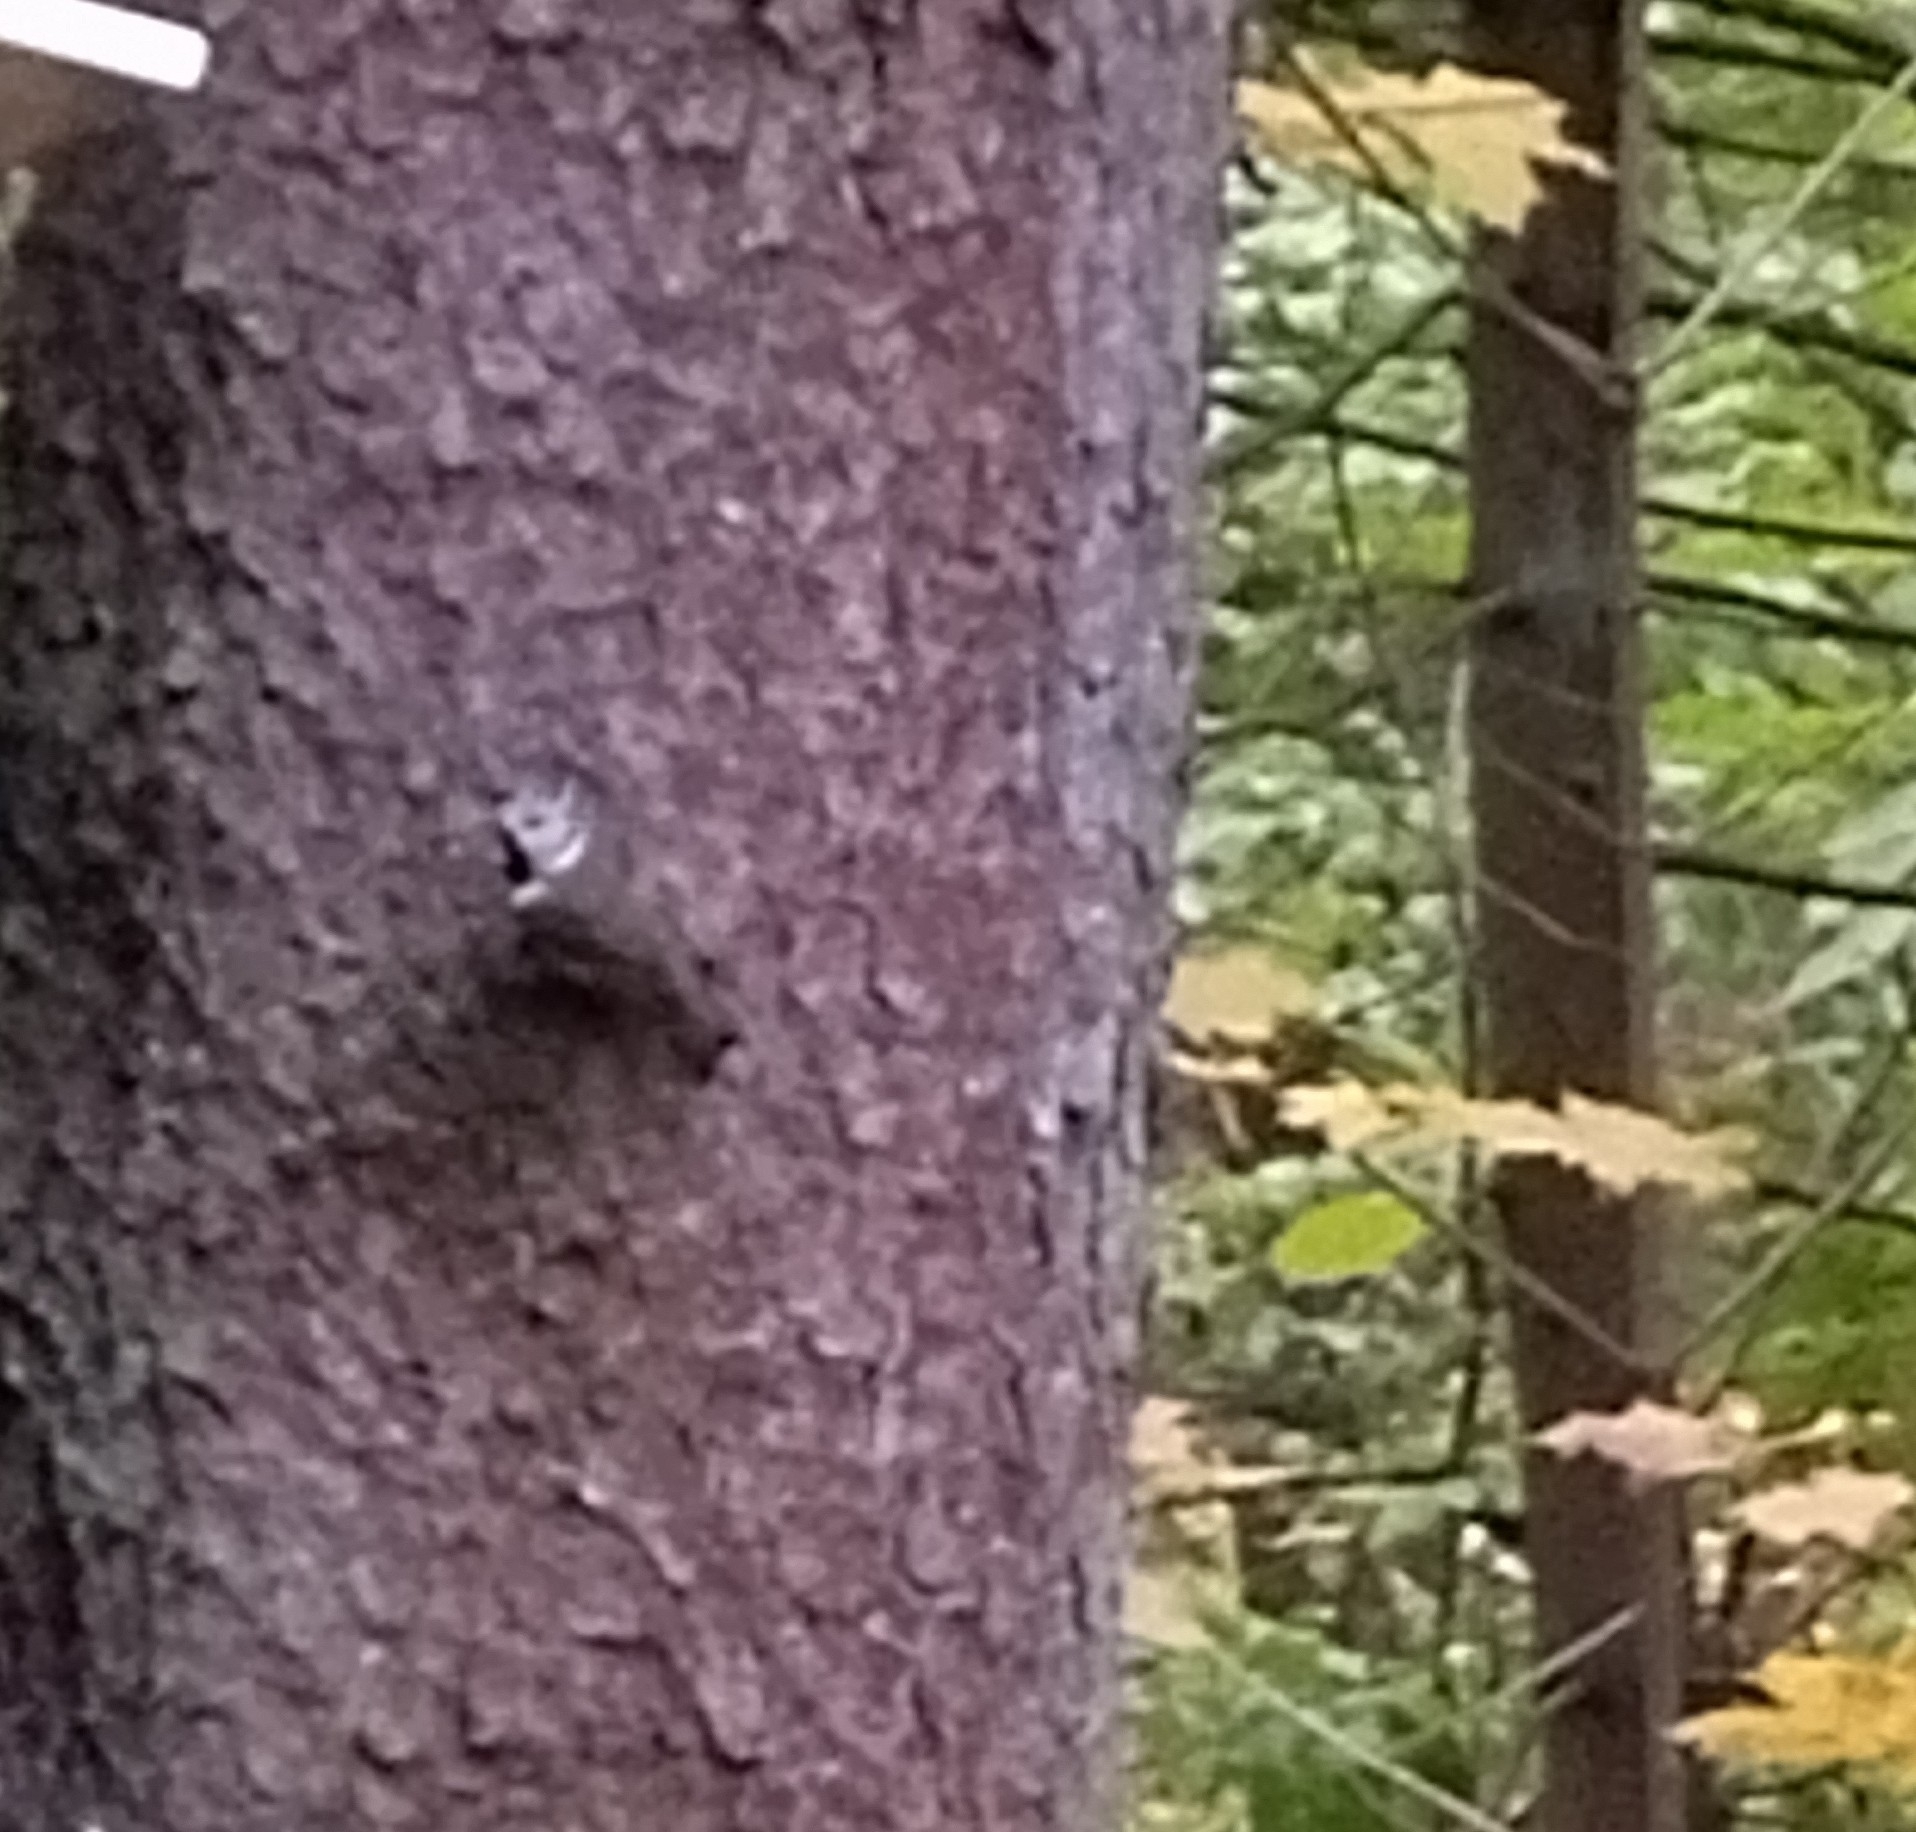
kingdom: Animalia
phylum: Chordata
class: Aves
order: Passeriformes
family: Paridae
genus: Lophophanes
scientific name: Lophophanes cristatus
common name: European crested tit
